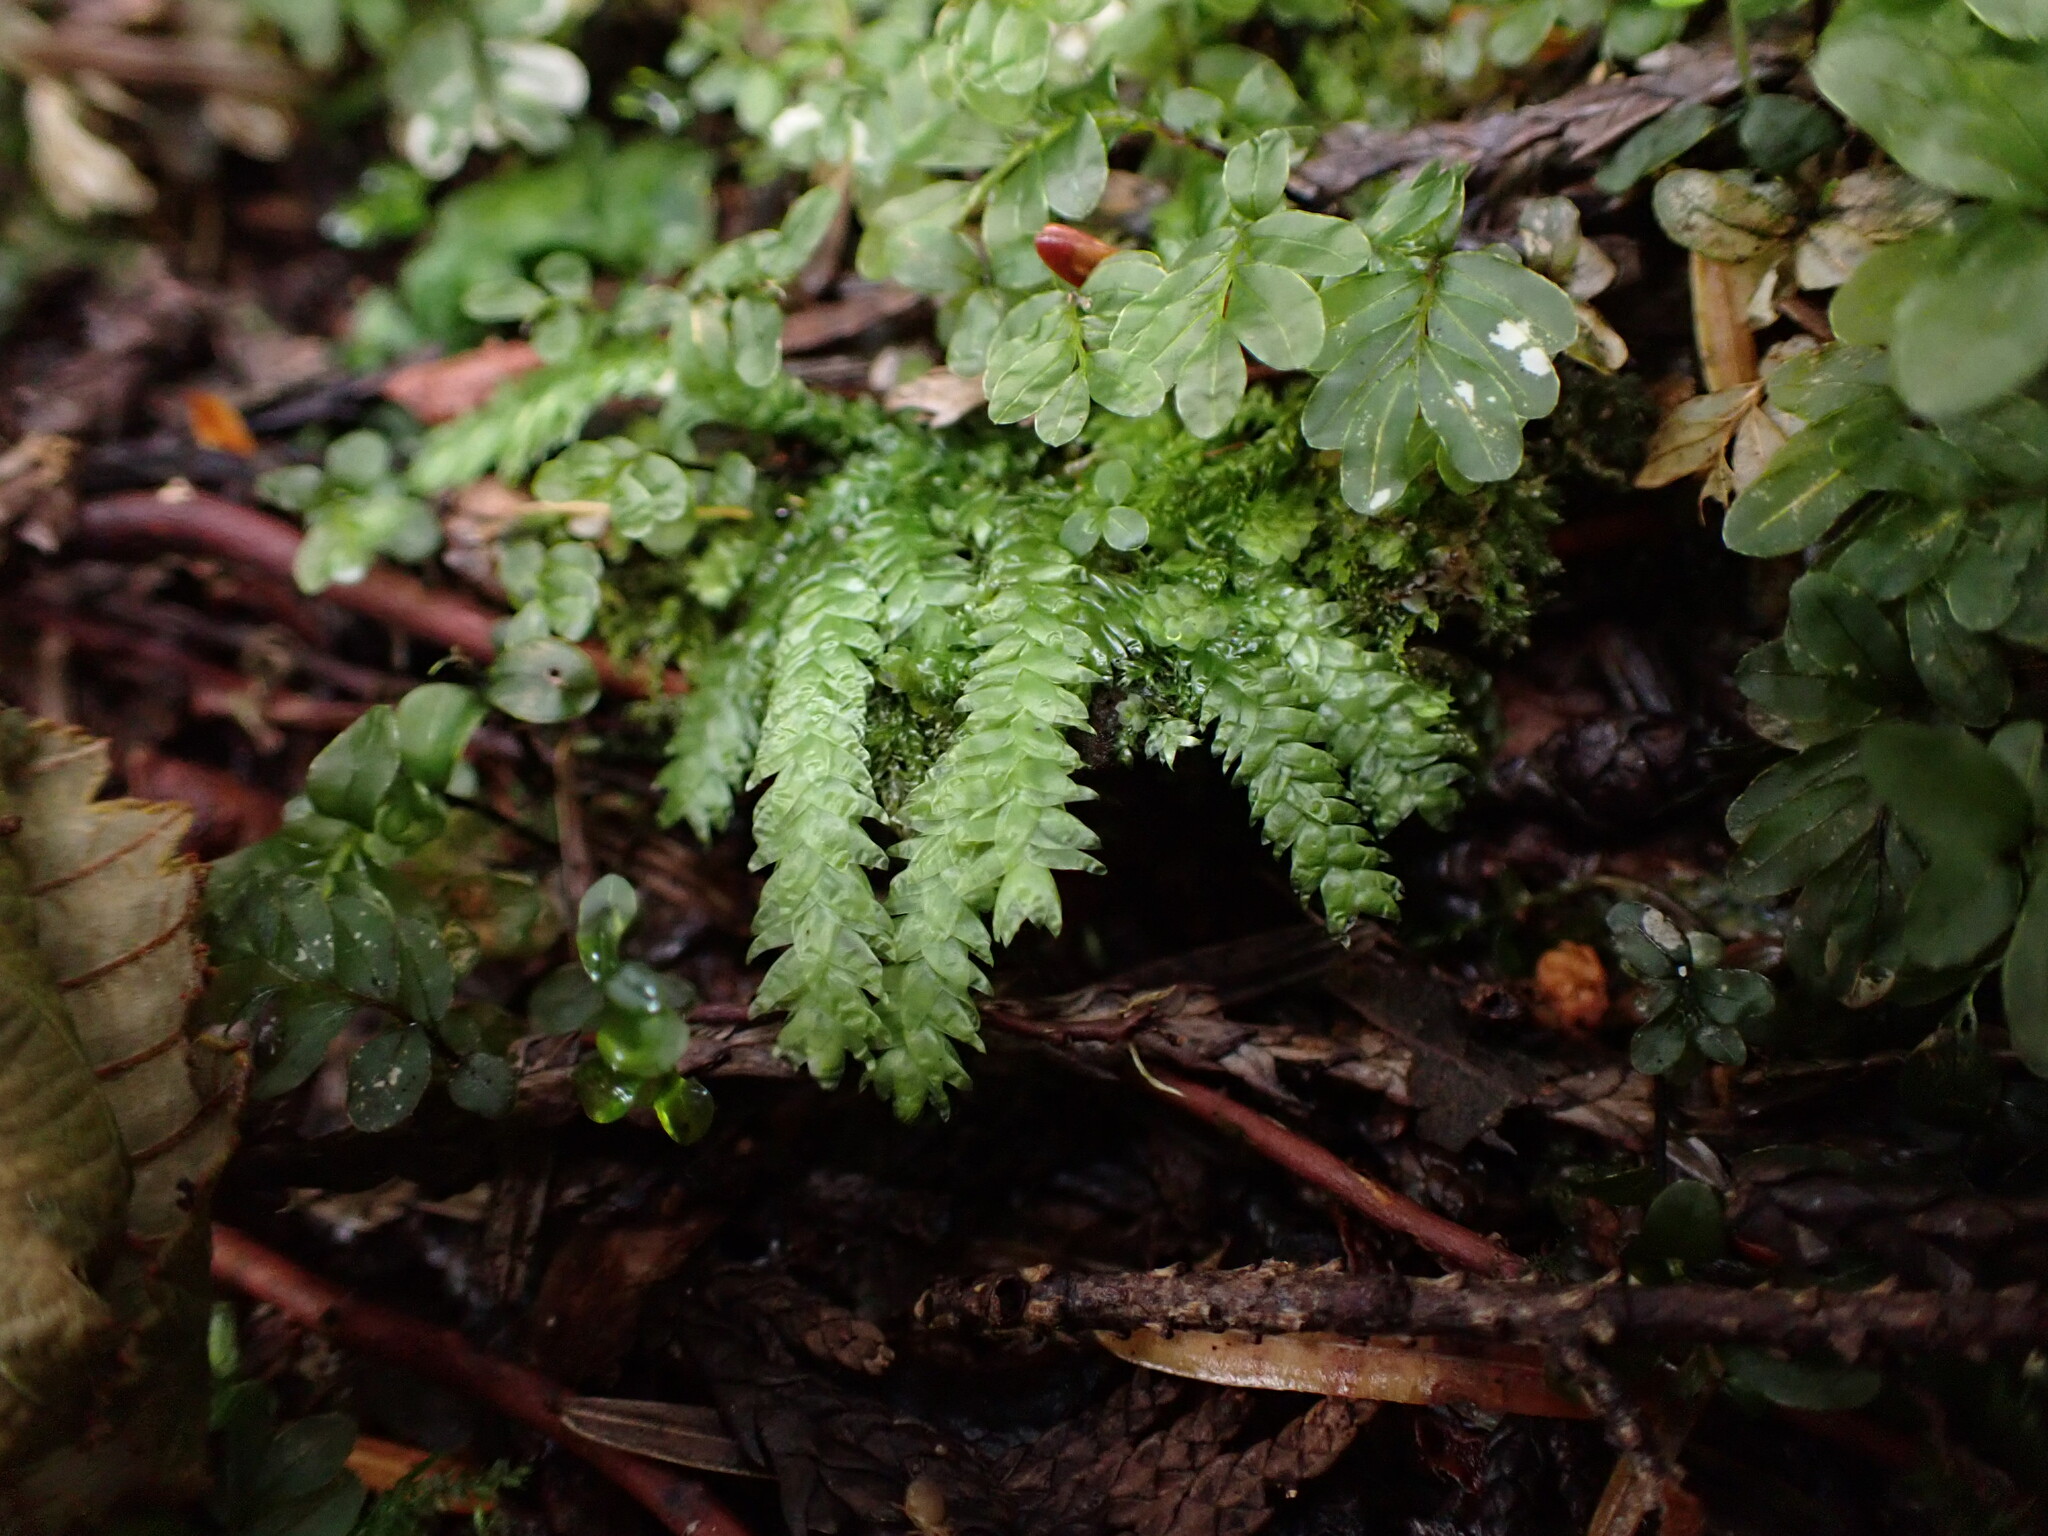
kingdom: Plantae
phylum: Bryophyta
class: Bryopsida
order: Hypnales
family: Plagiotheciaceae
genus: Plagiothecium
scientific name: Plagiothecium undulatum
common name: Waved silk-moss
